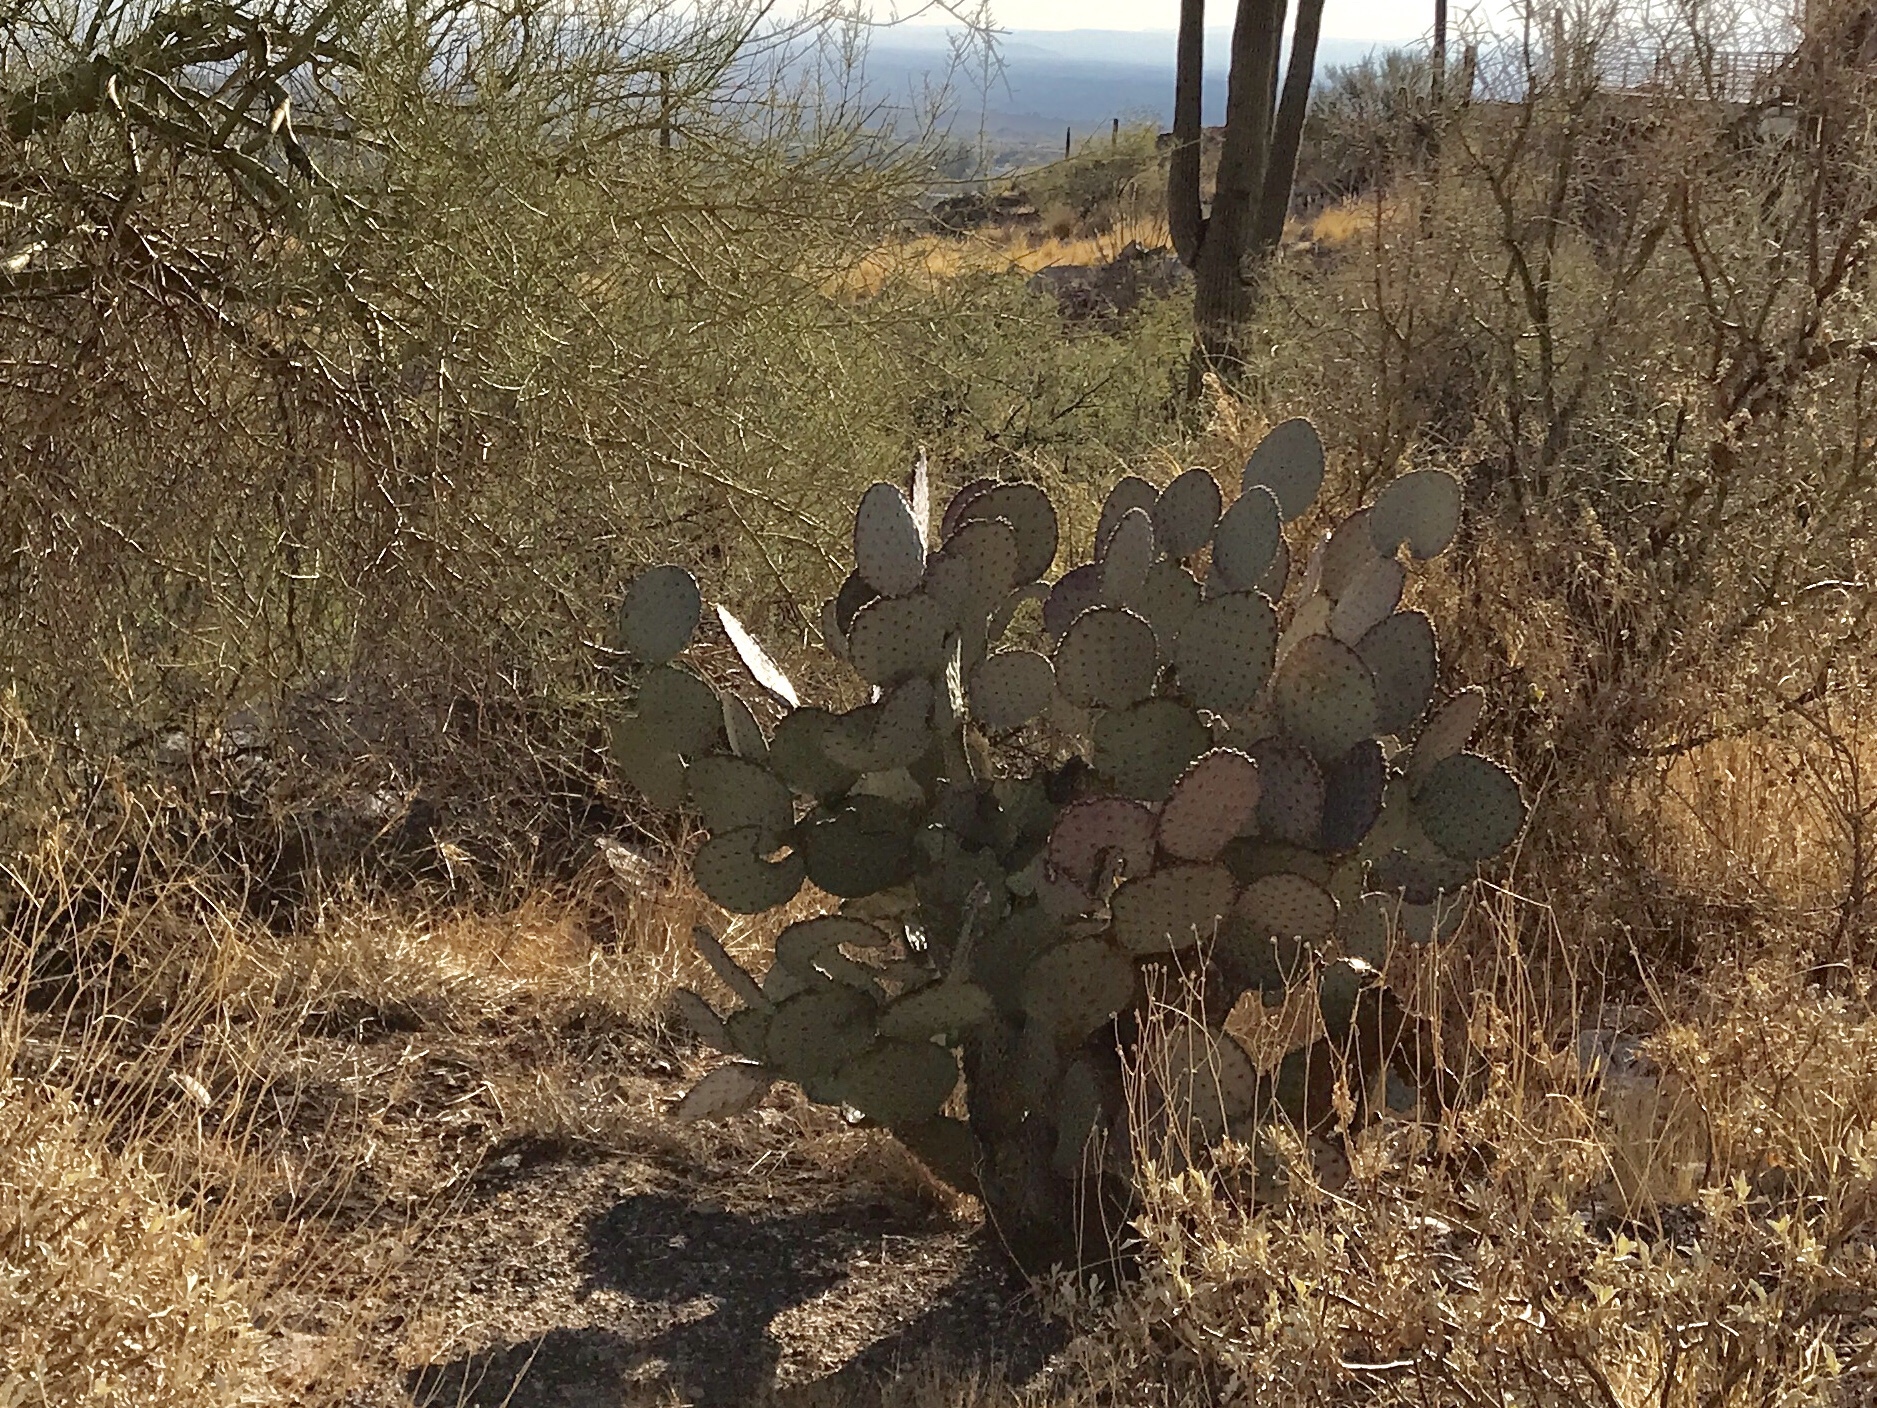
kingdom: Plantae
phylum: Tracheophyta
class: Magnoliopsida
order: Caryophyllales
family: Cactaceae
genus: Opuntia
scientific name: Opuntia gosseliniana
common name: Violet prickly-pear
